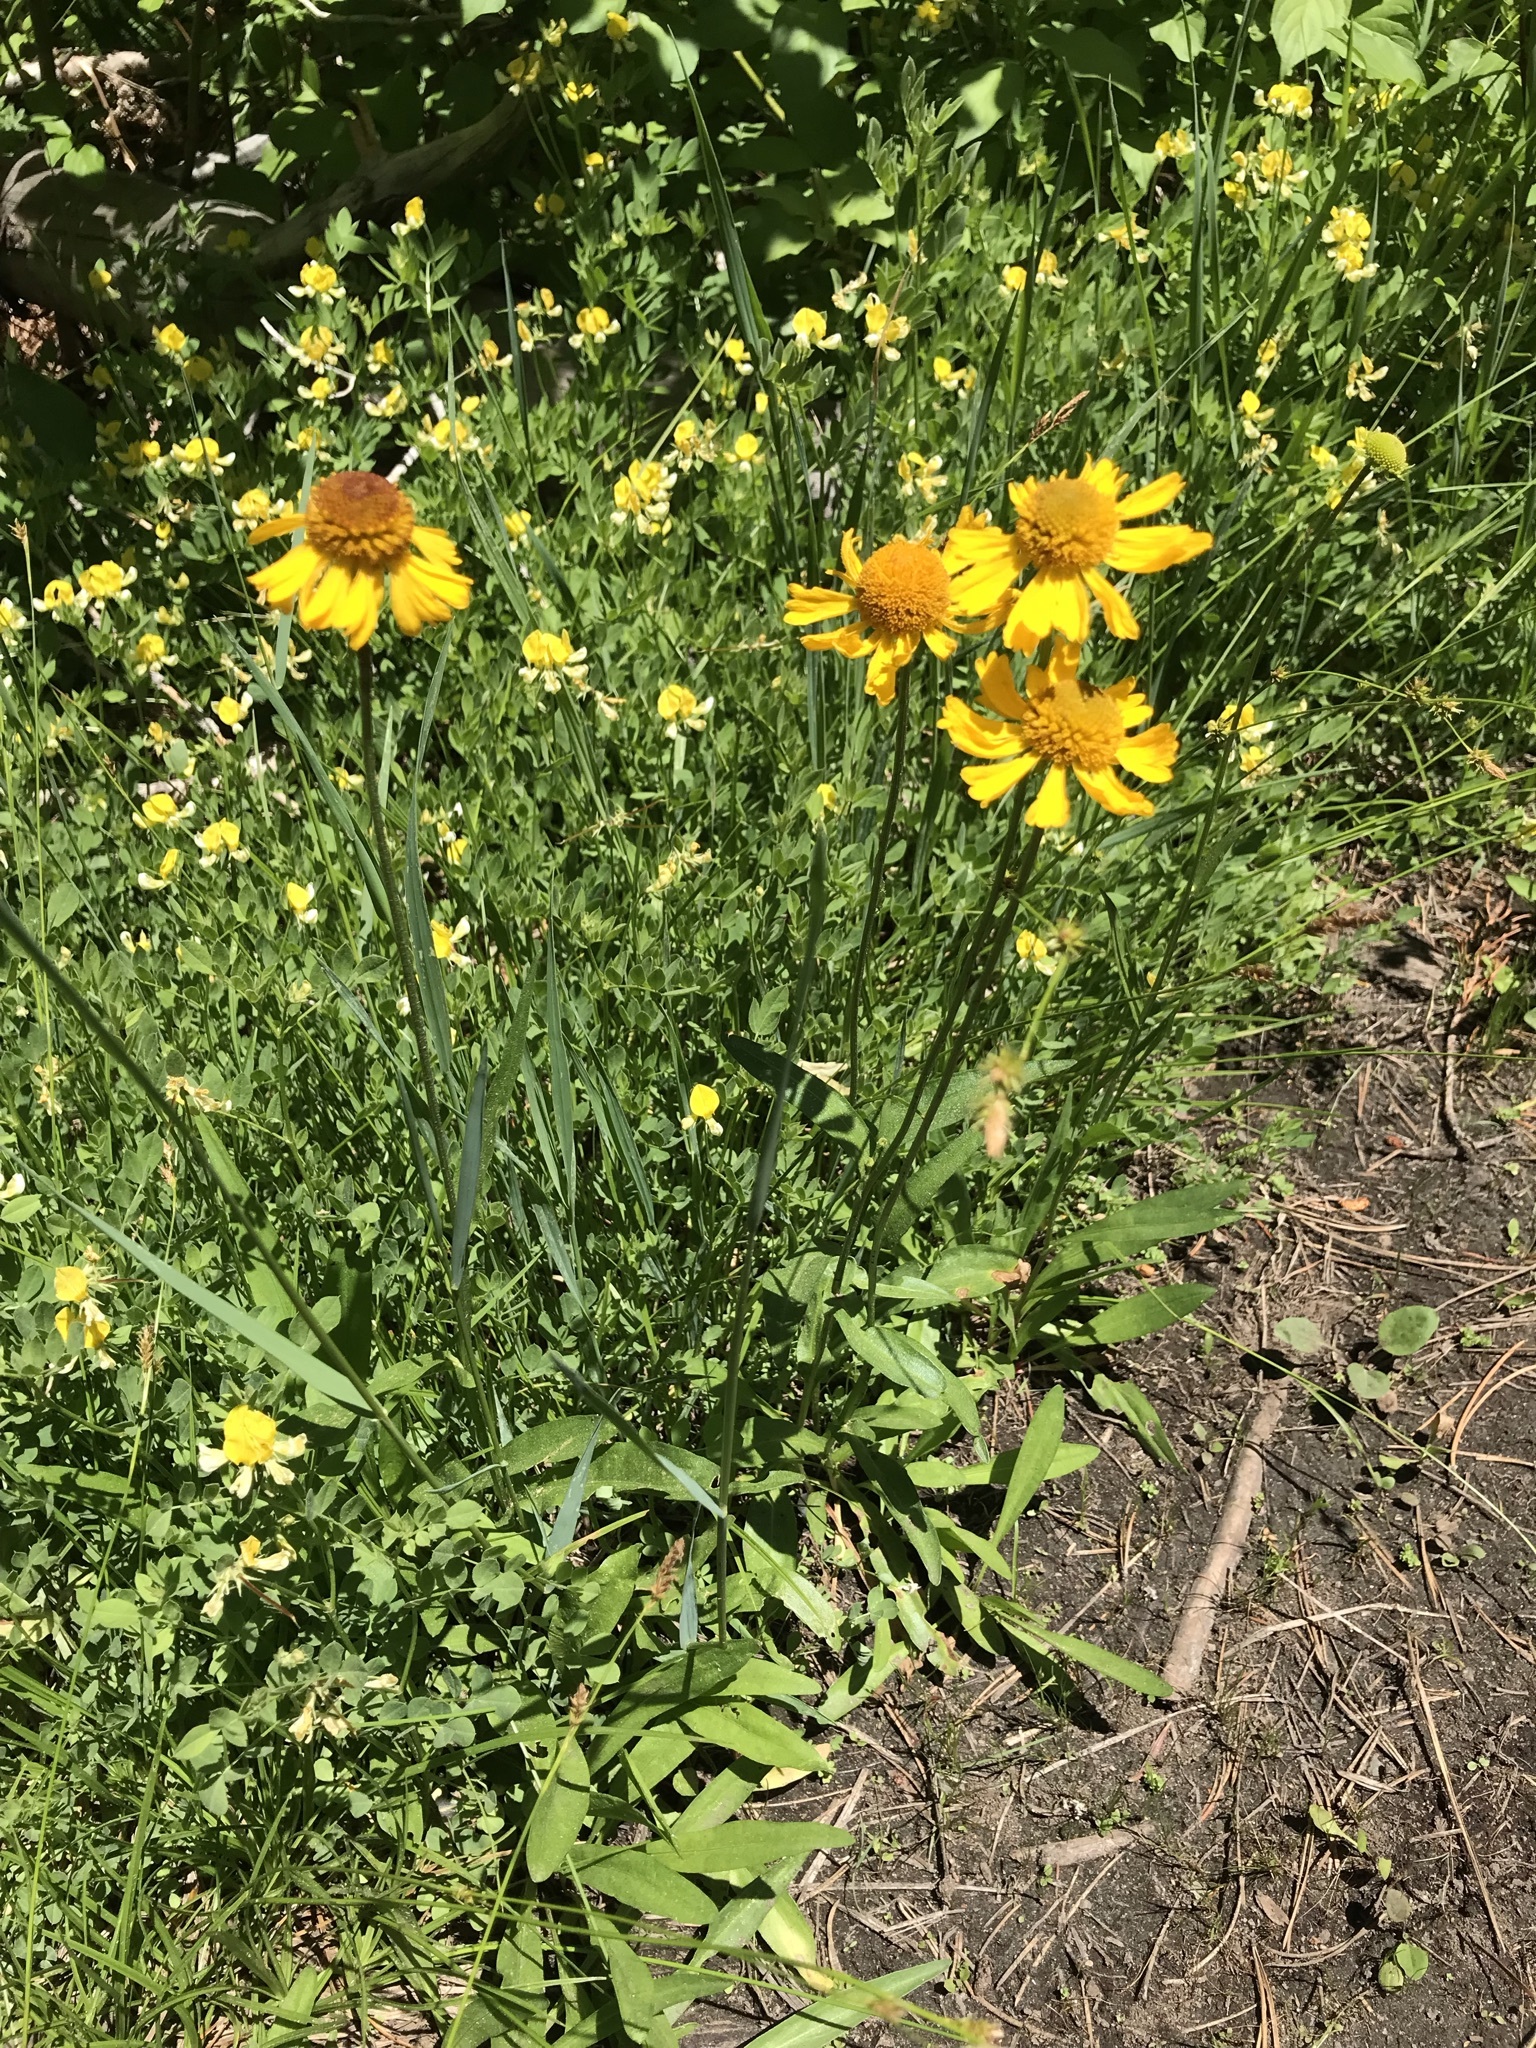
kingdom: Plantae
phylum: Tracheophyta
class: Magnoliopsida
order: Asterales
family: Asteraceae
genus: Helenium
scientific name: Helenium bigelovii
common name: Bigelow's sneezeweed
